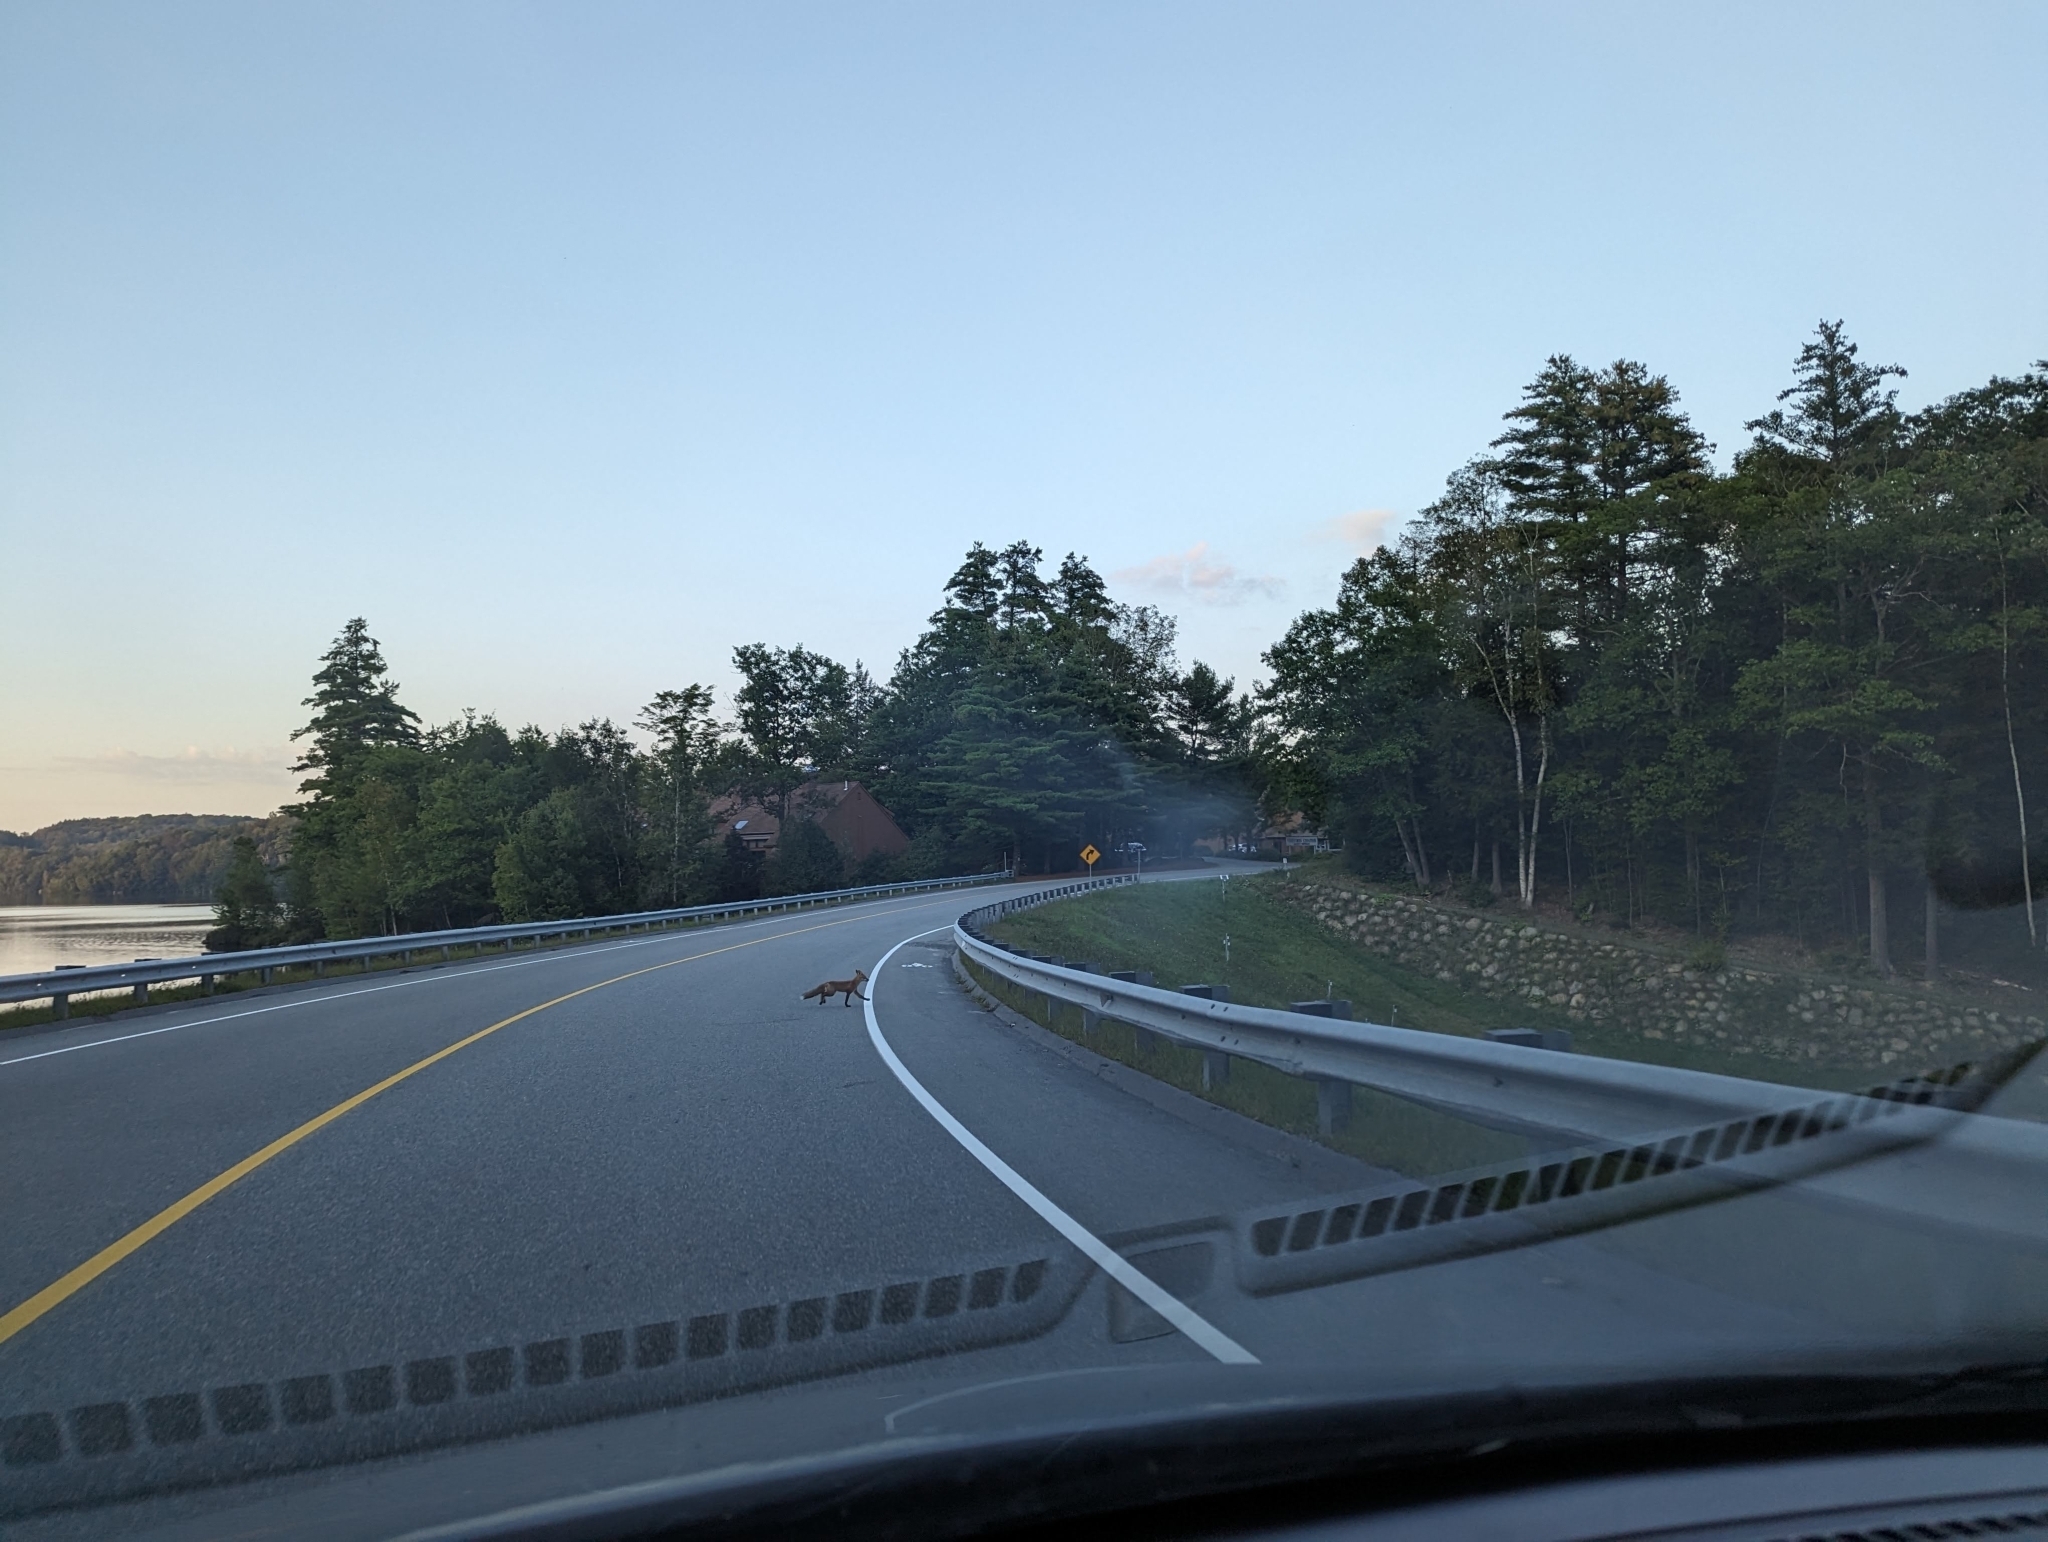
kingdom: Animalia
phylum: Chordata
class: Mammalia
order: Carnivora
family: Canidae
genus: Vulpes
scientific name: Vulpes vulpes
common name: Red fox
